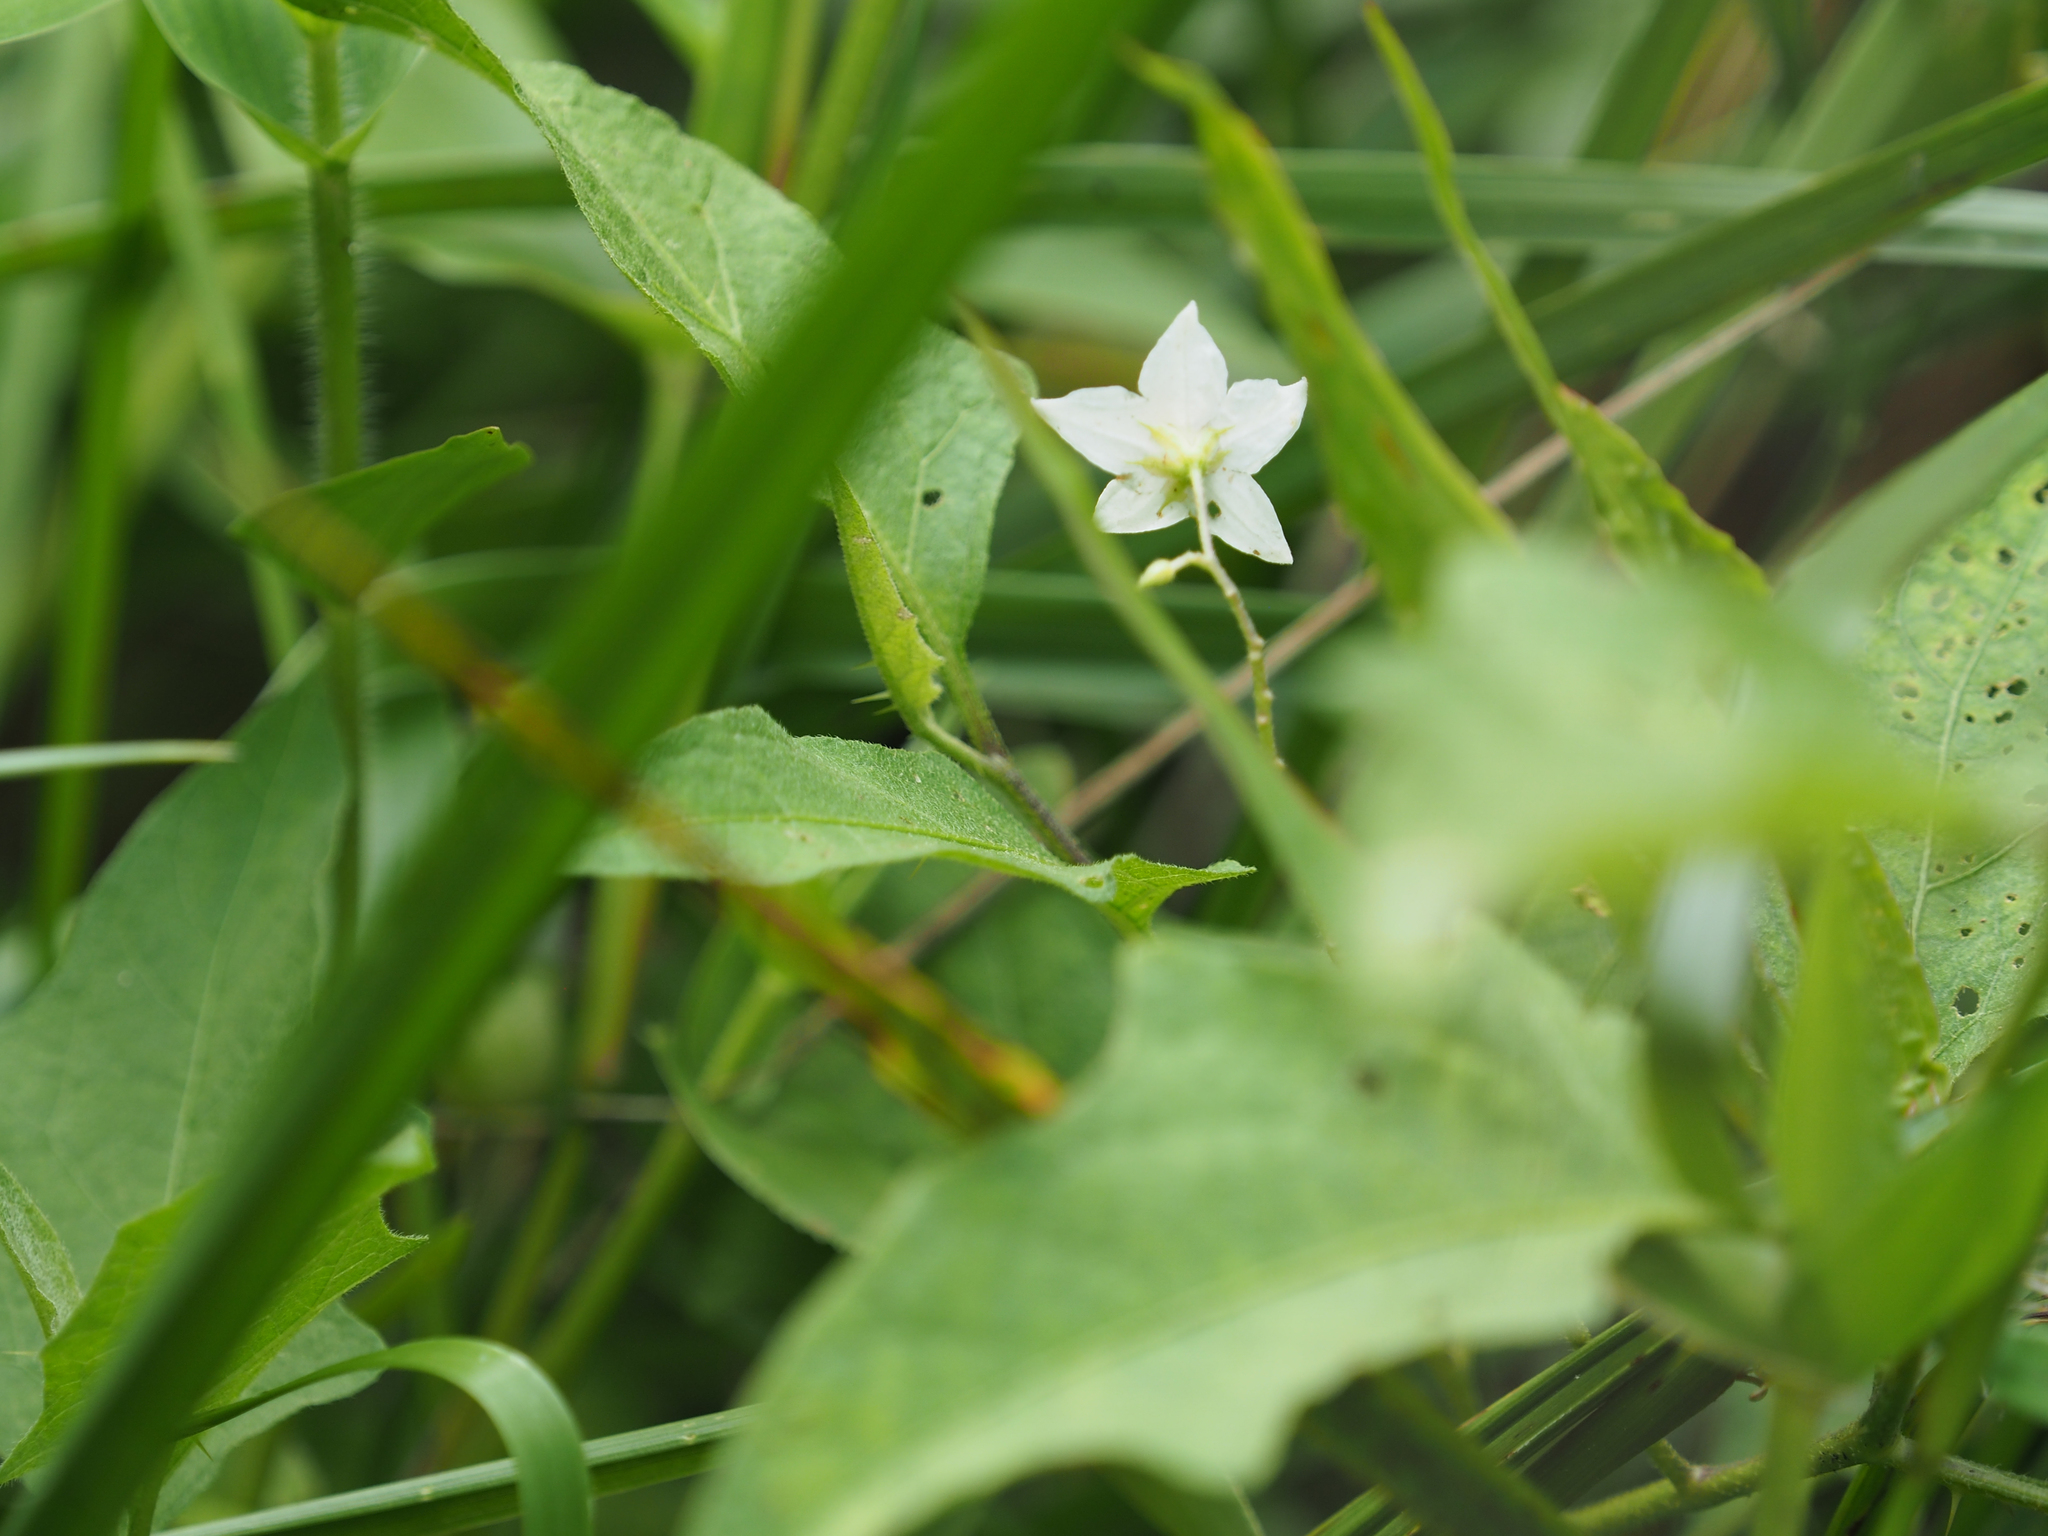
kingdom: Plantae
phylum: Tracheophyta
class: Magnoliopsida
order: Solanales
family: Solanaceae
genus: Solanum
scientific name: Solanum carolinense
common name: Horse-nettle
